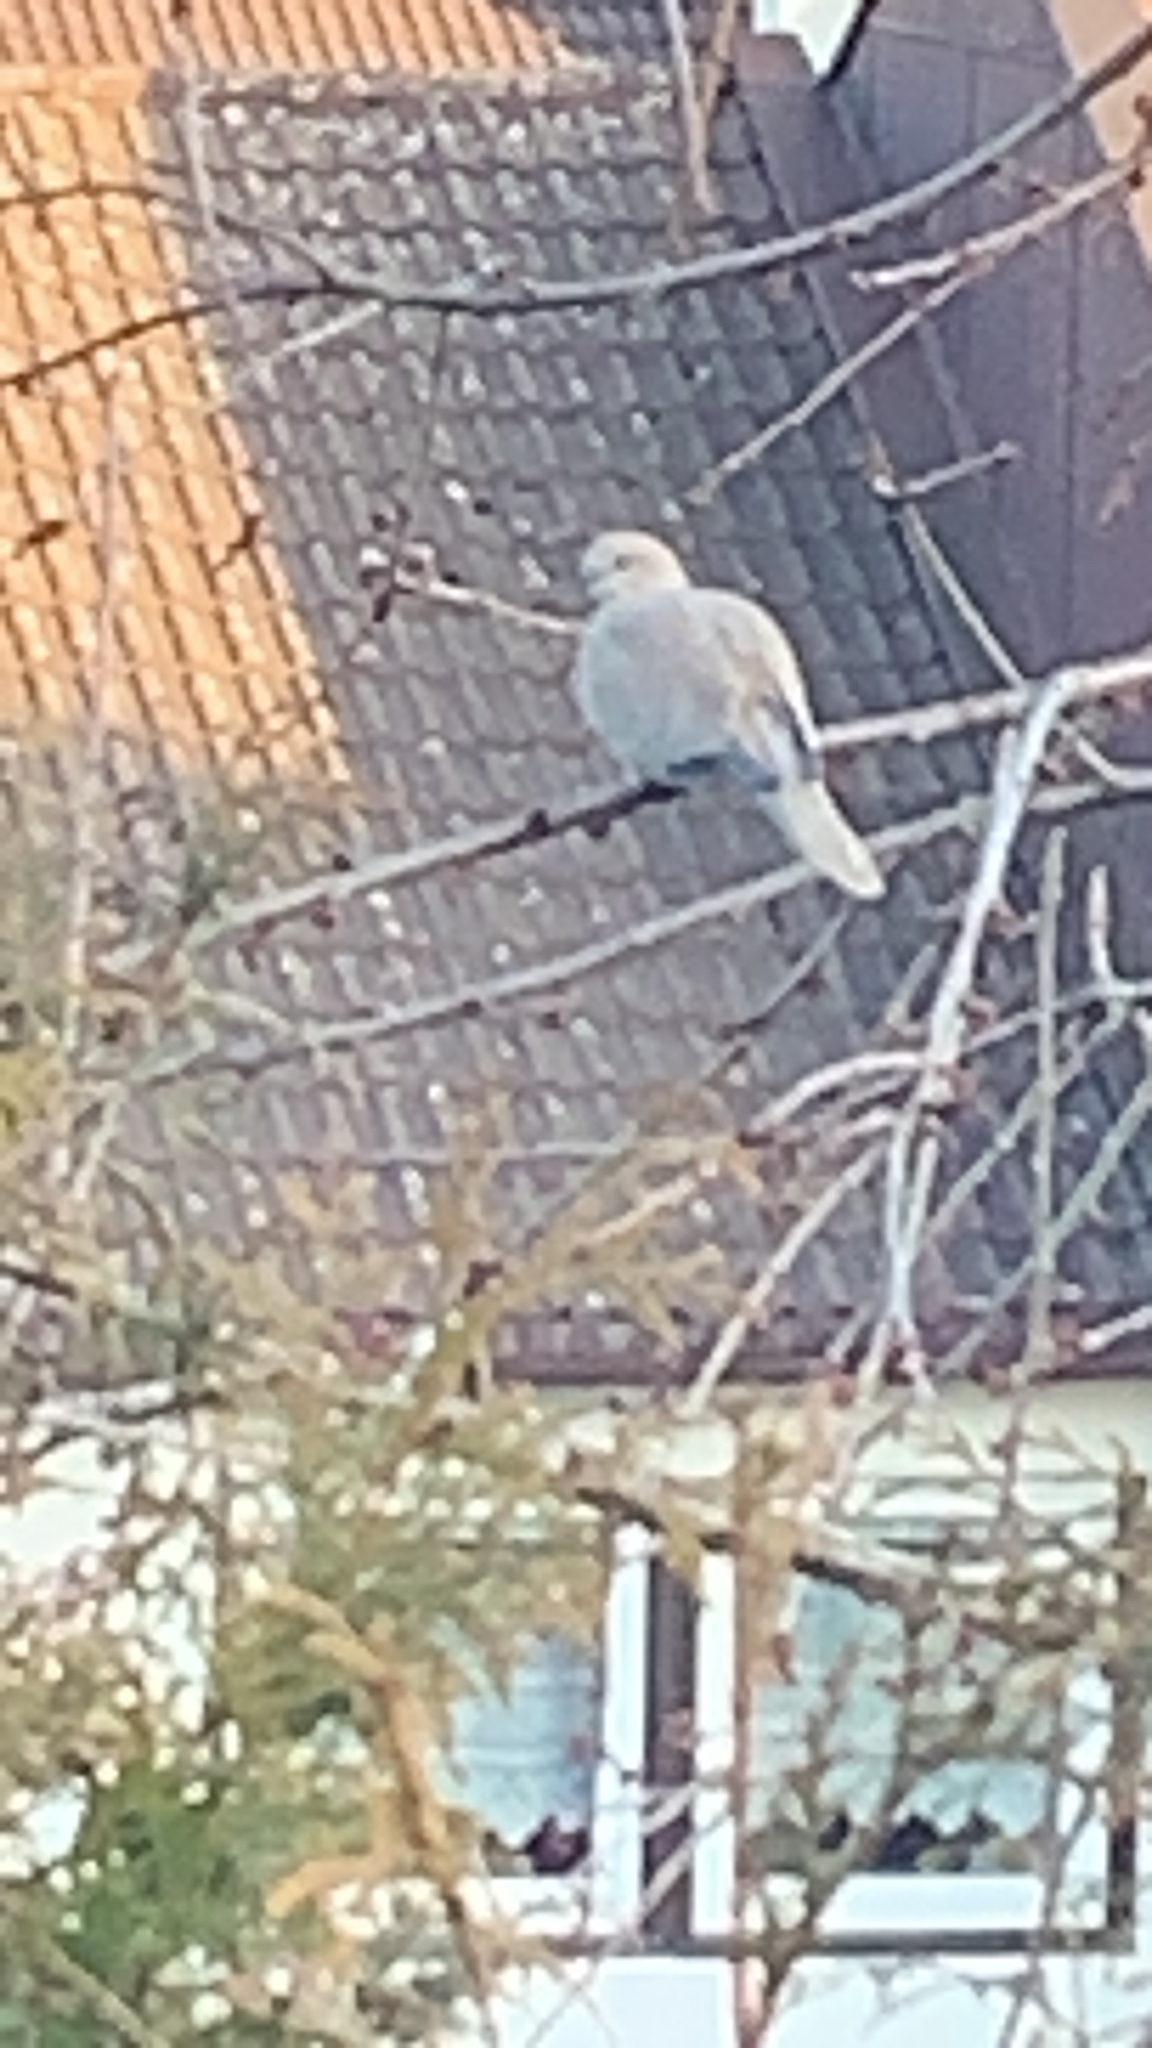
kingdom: Animalia
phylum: Chordata
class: Aves
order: Columbiformes
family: Columbidae
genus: Streptopelia
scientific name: Streptopelia decaocto
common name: Eurasian collared dove
